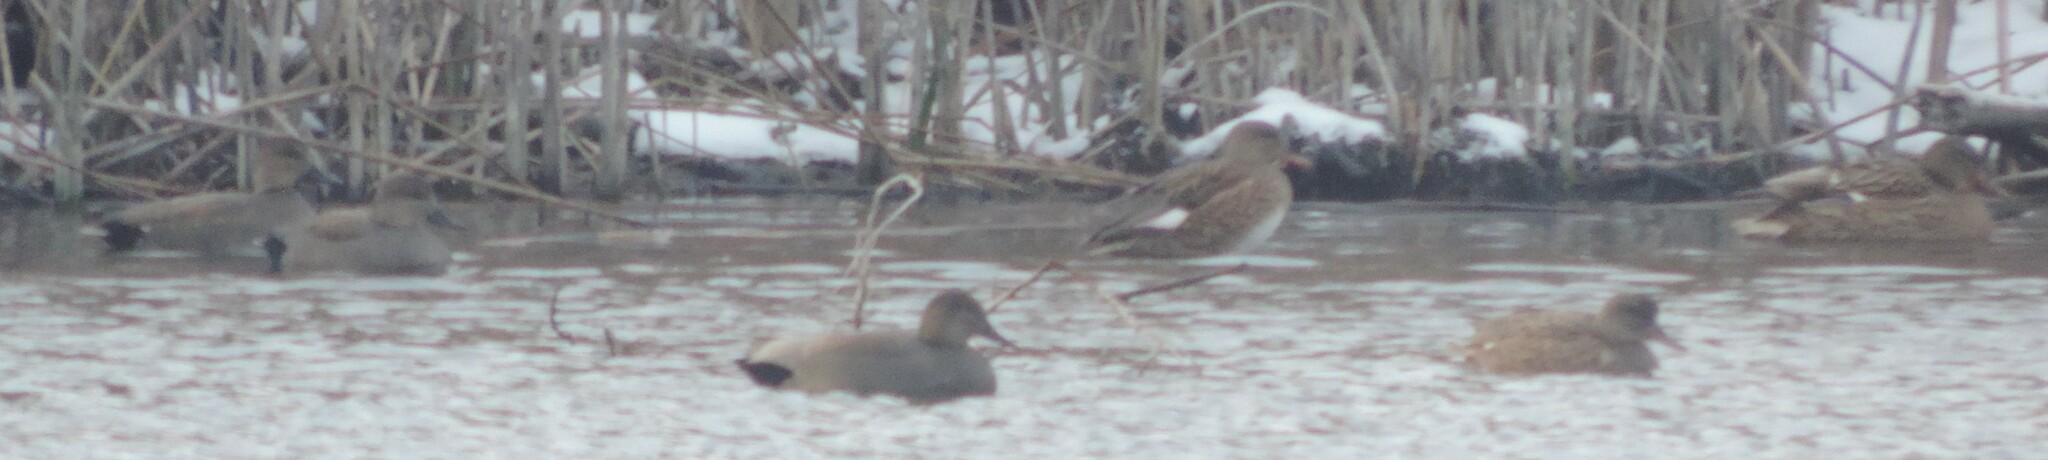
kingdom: Animalia
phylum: Chordata
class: Aves
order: Anseriformes
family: Anatidae
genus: Mareca
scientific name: Mareca strepera
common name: Gadwall
